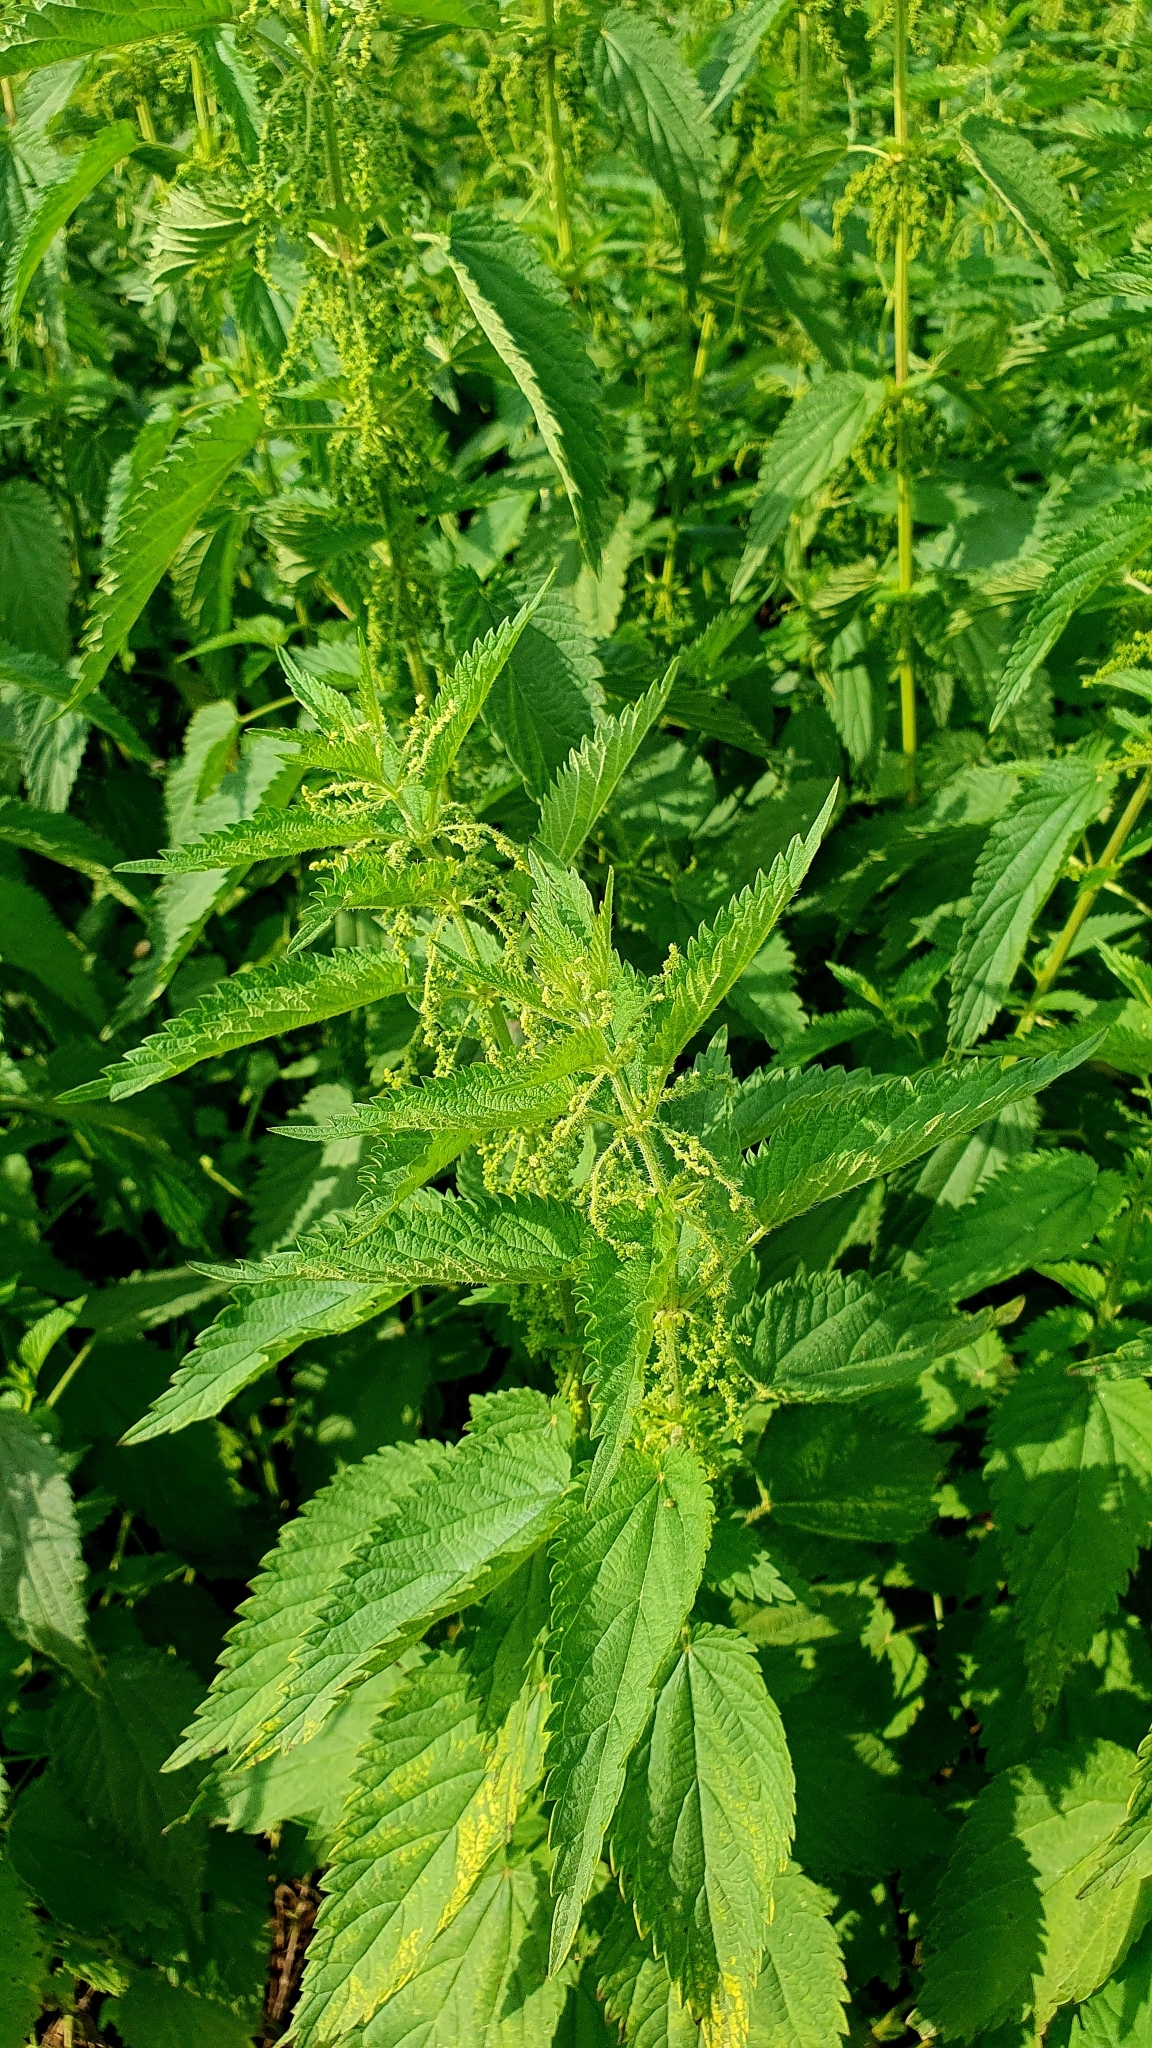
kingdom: Plantae
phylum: Tracheophyta
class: Magnoliopsida
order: Rosales
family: Urticaceae
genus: Urtica
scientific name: Urtica dioica
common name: Common nettle
